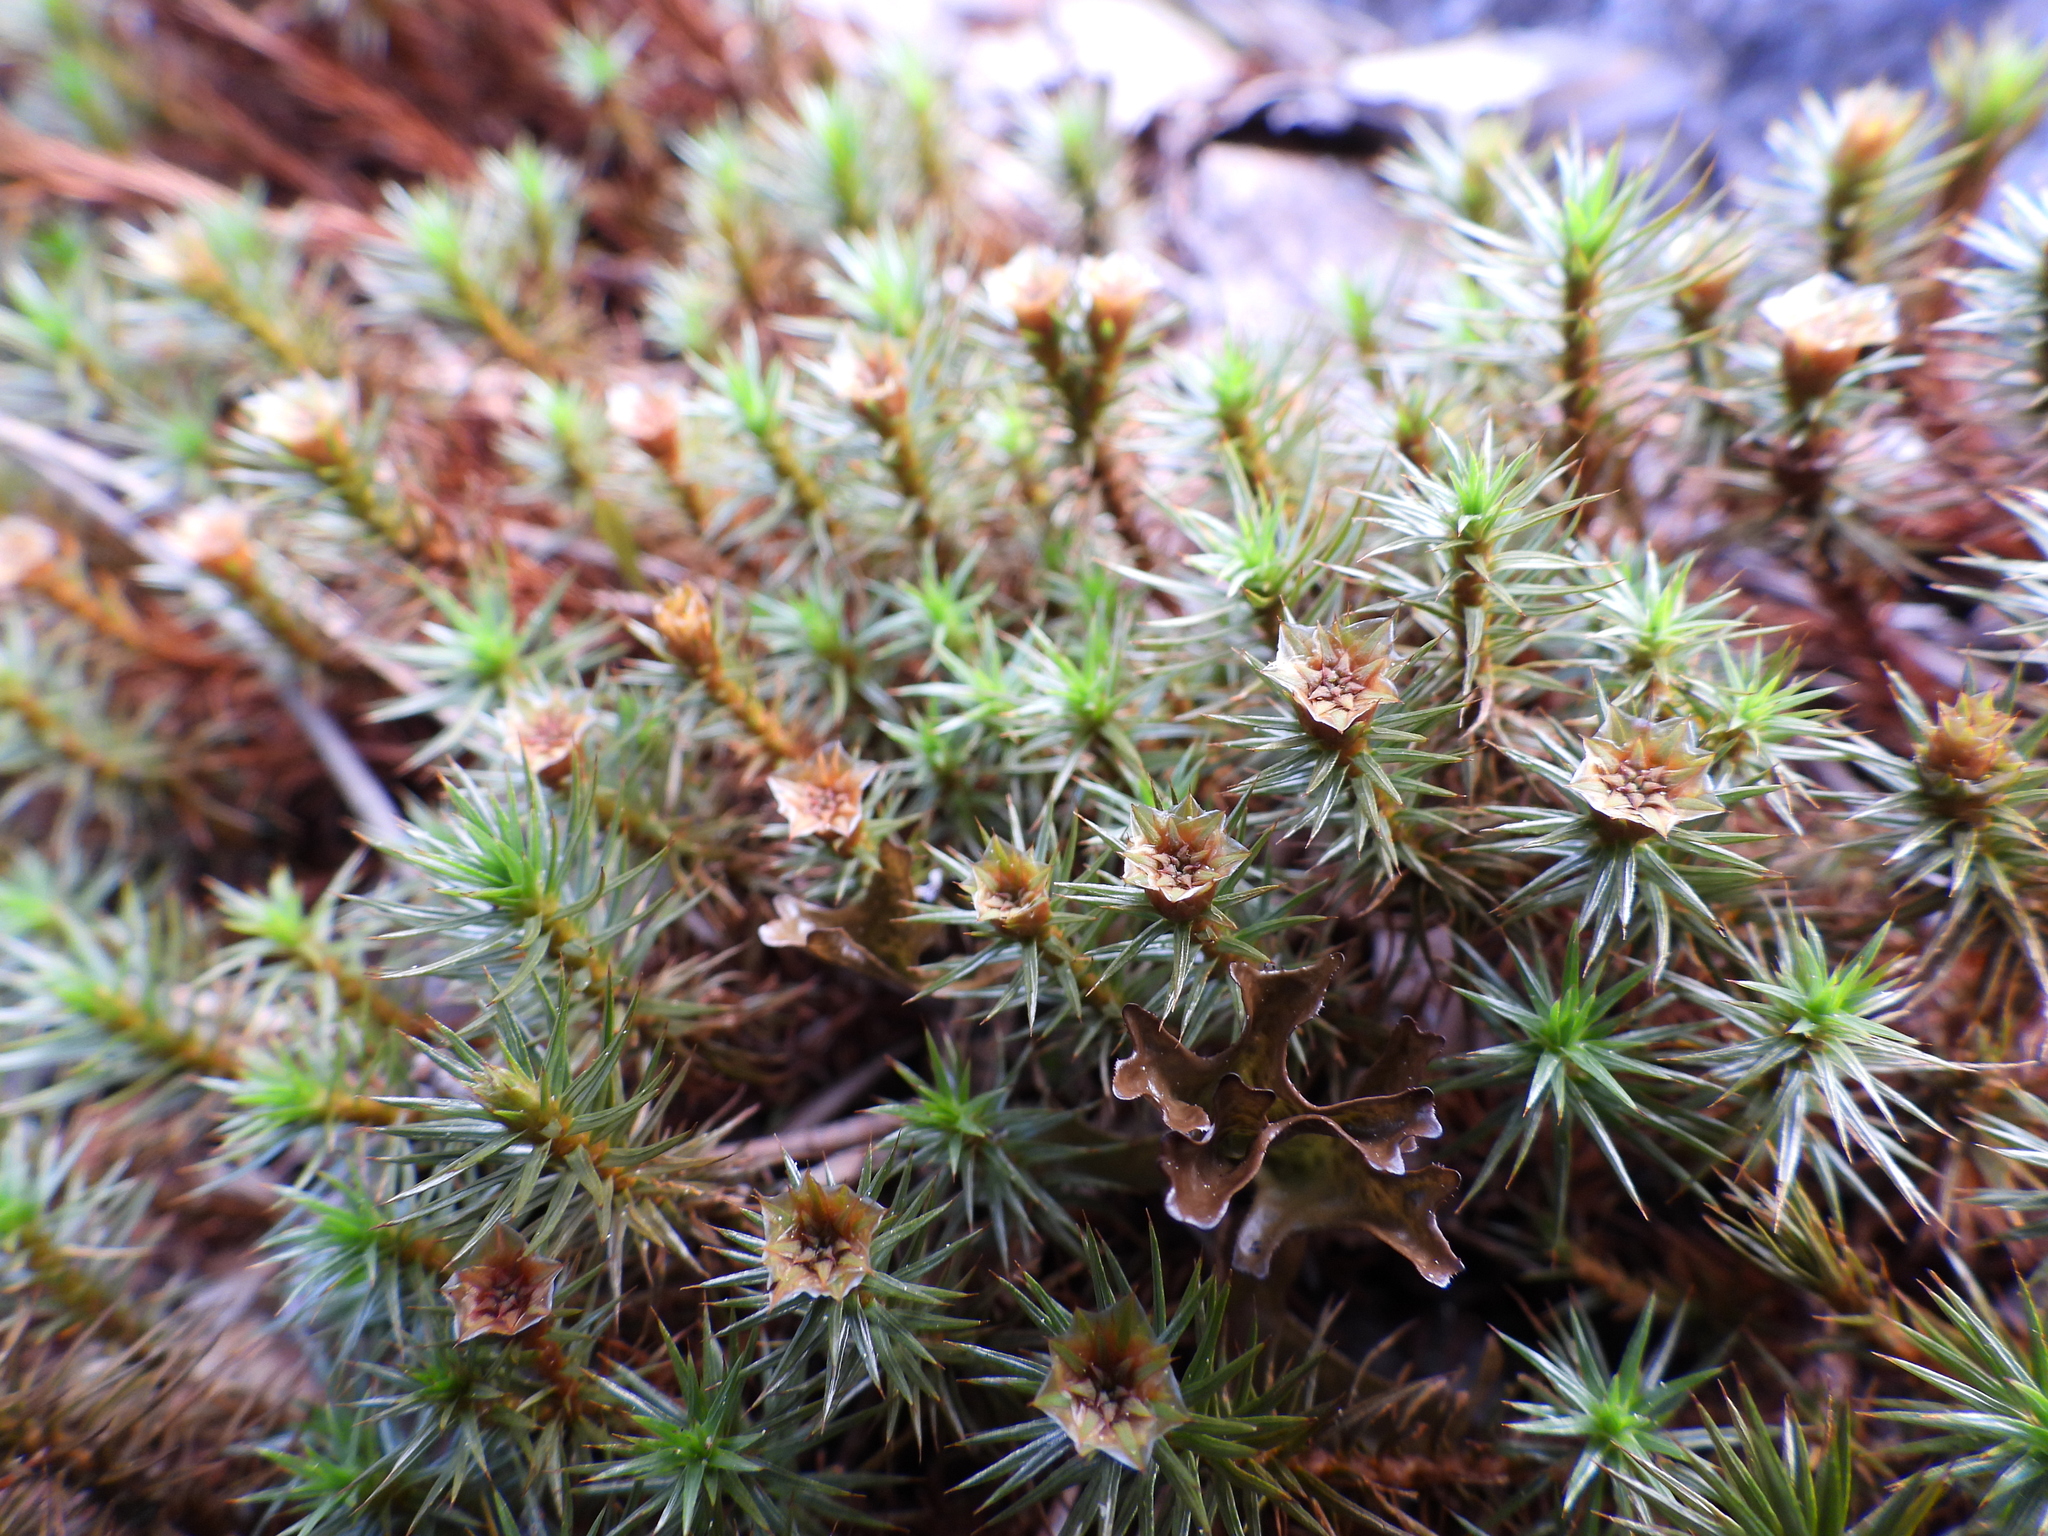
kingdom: Plantae
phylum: Bryophyta
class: Polytrichopsida
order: Polytrichales
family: Polytrichaceae
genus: Polytrichum
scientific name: Polytrichum juniperinum
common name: Juniper haircap moss
